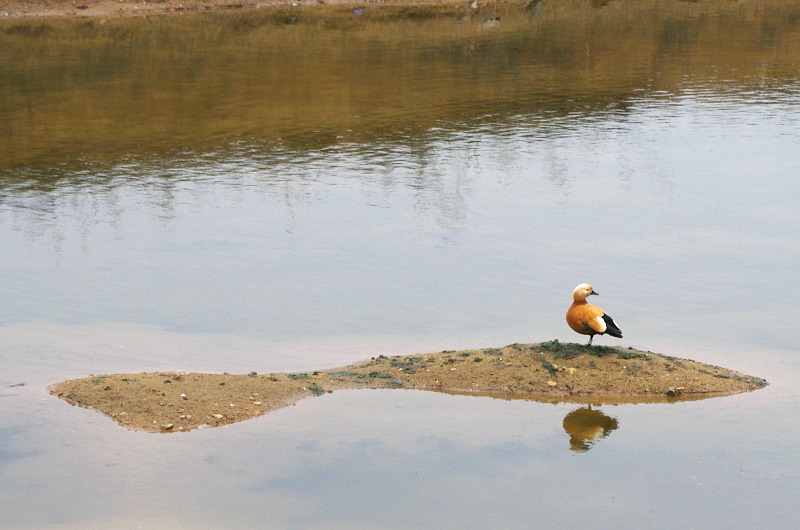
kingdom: Animalia
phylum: Chordata
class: Aves
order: Anseriformes
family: Anatidae
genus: Tadorna
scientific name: Tadorna ferruginea
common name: Ruddy shelduck
